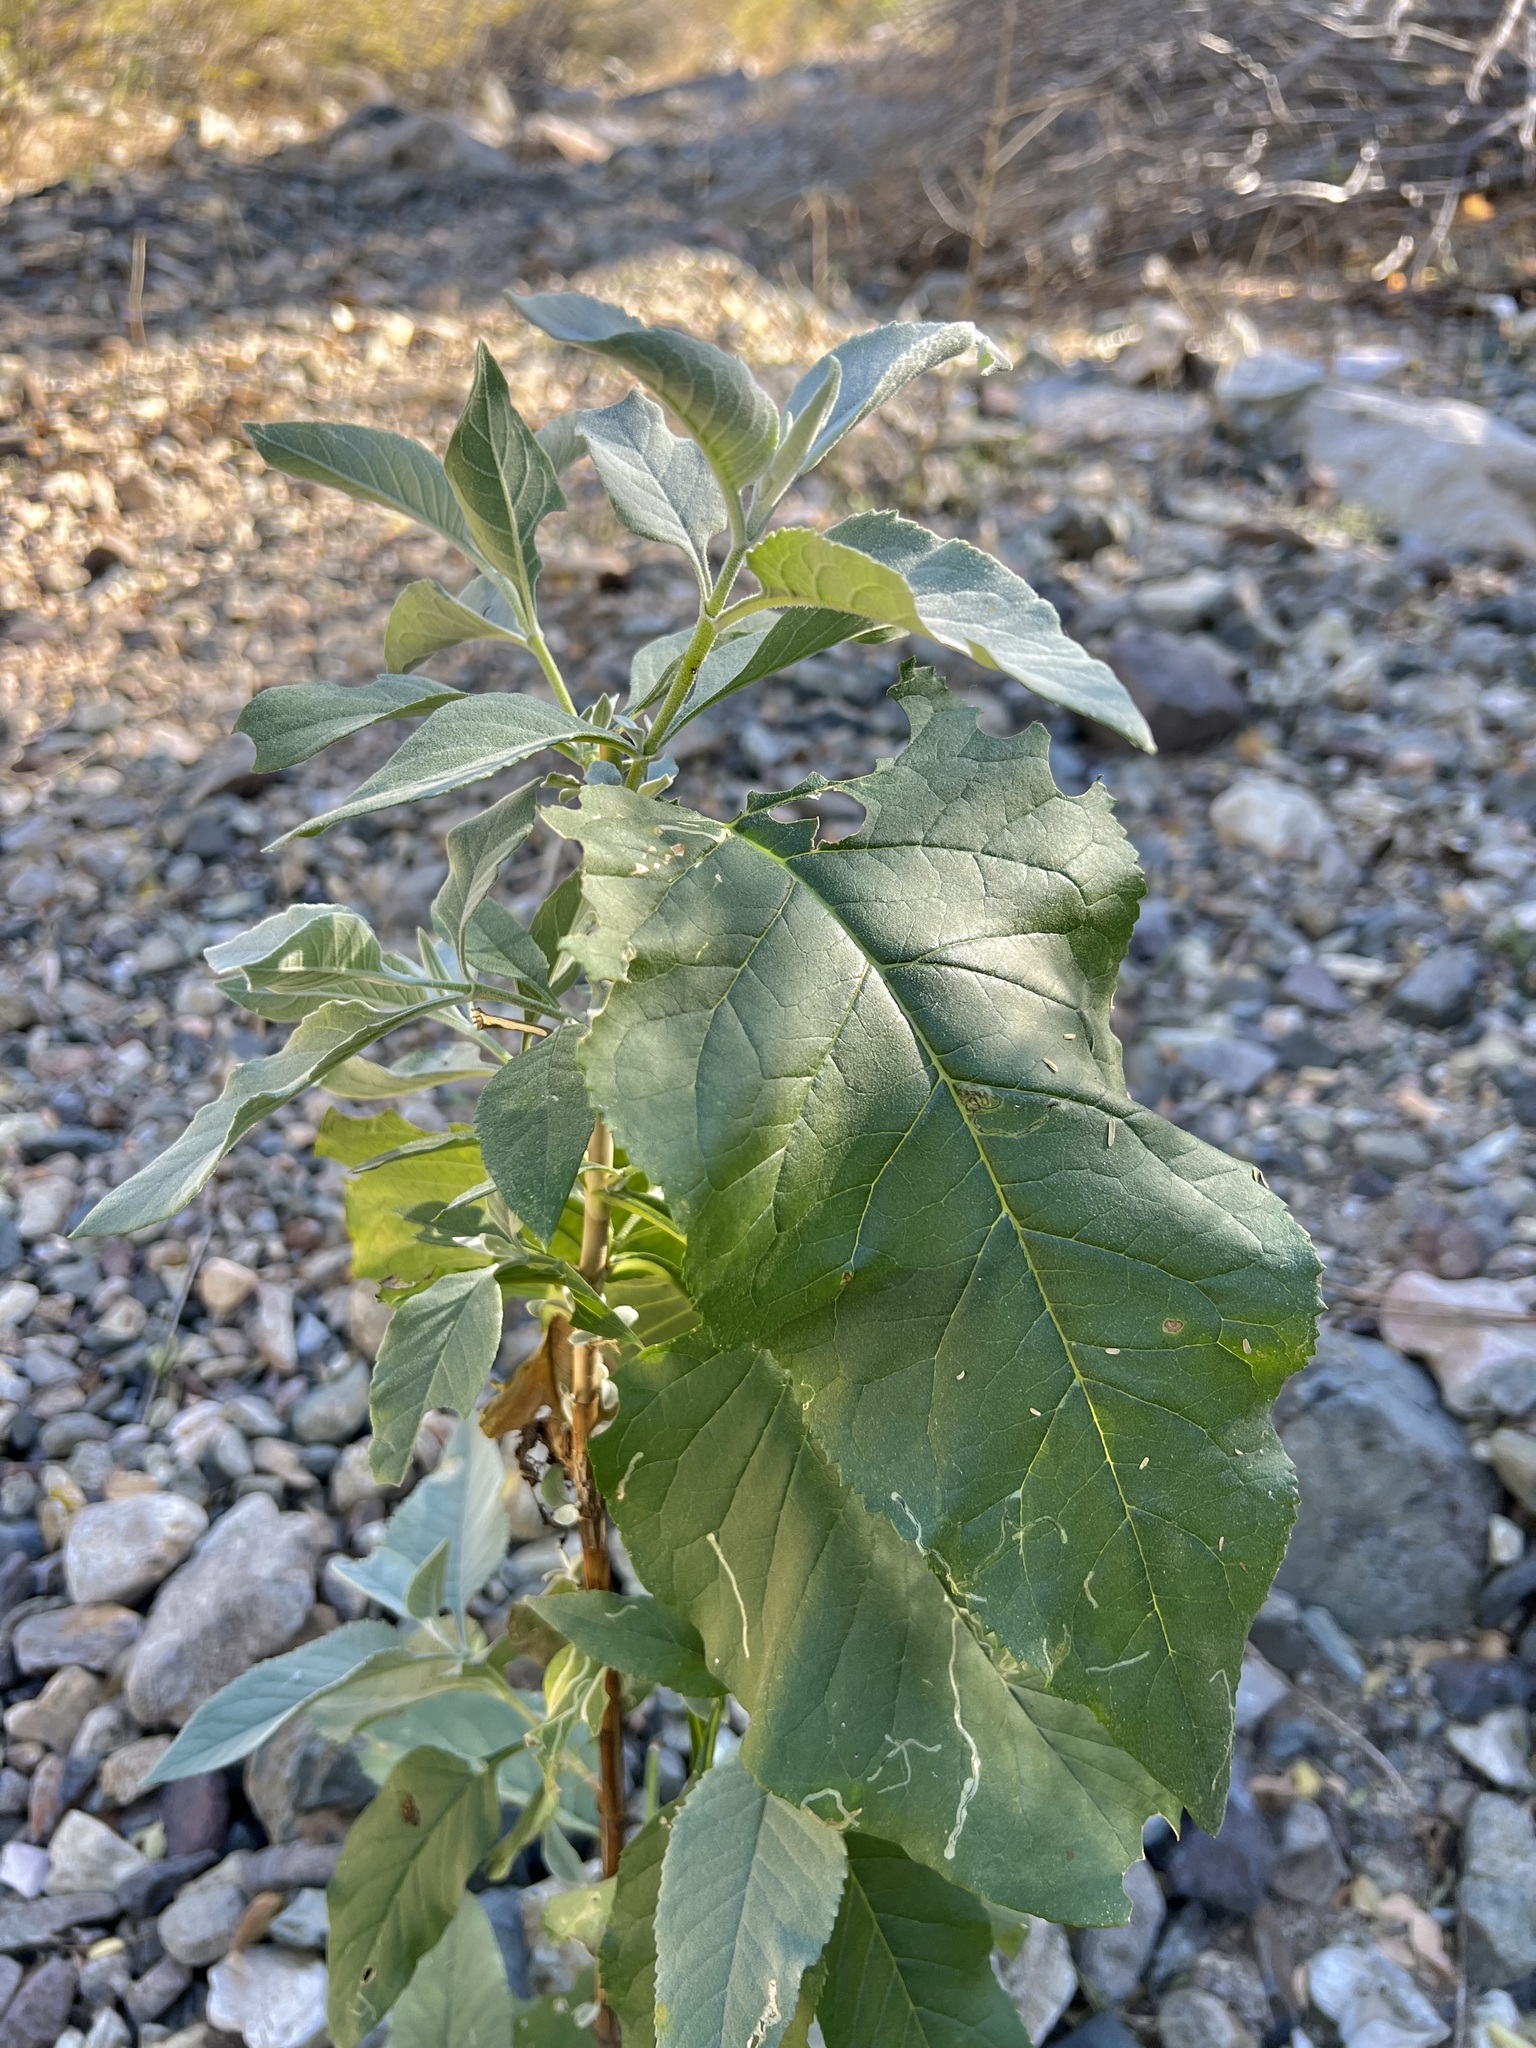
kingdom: Plantae
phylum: Tracheophyta
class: Magnoliopsida
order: Lamiales
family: Scrophulariaceae
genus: Buddleja
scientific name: Buddleja sessiliflora
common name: Rio grande butterfly-bush
